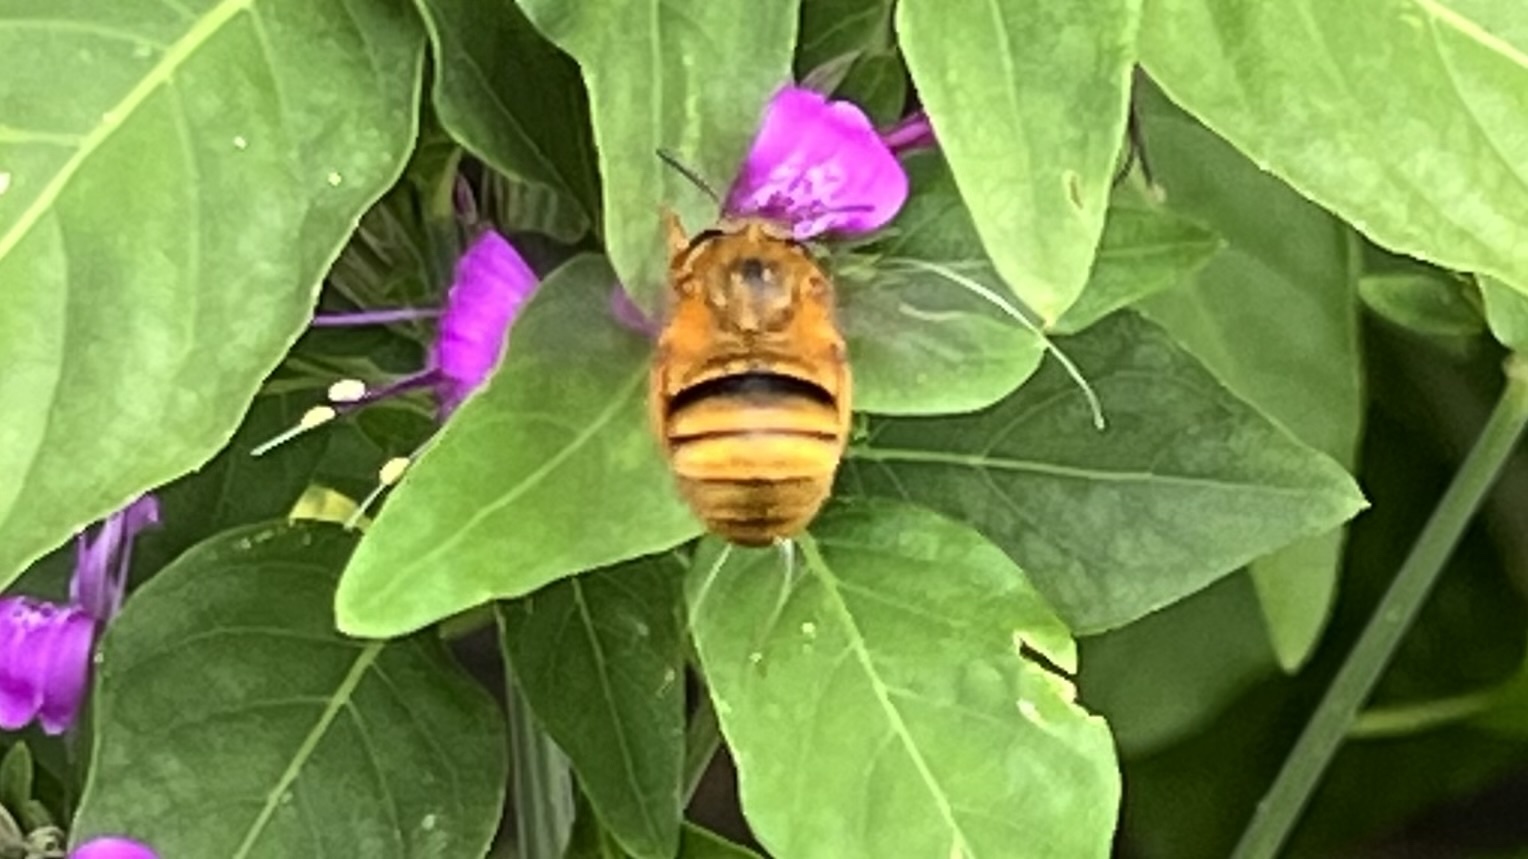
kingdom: Animalia
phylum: Arthropoda
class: Insecta
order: Hymenoptera
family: Apidae
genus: Amegilla
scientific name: Amegilla bombiformis
